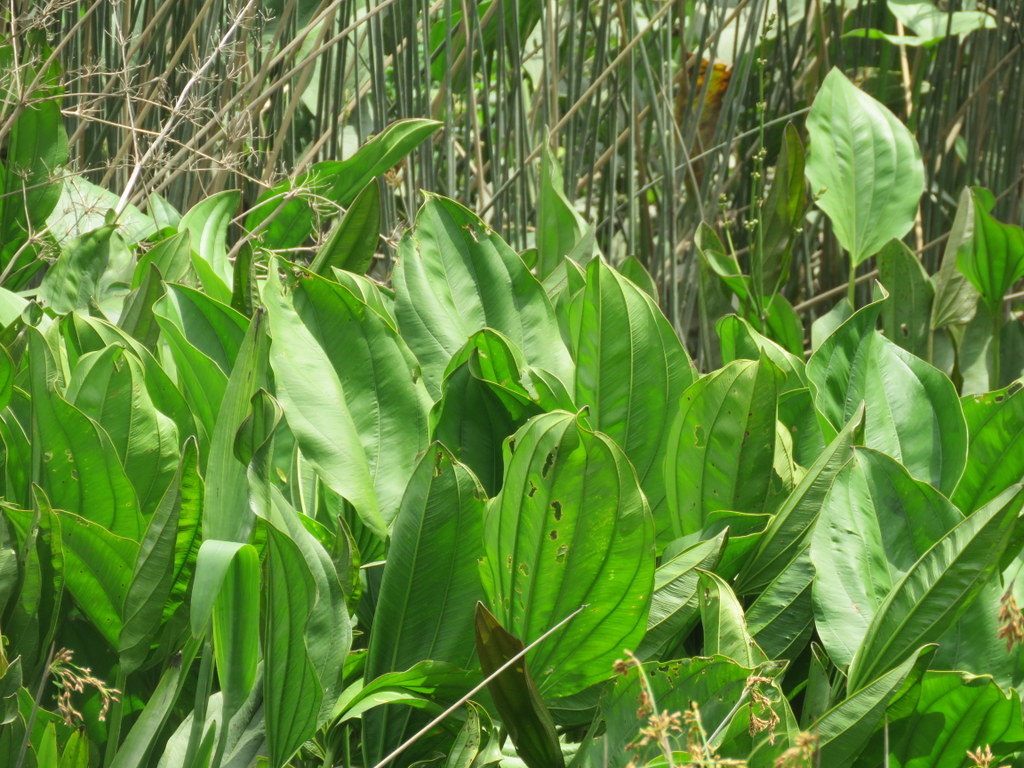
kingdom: Plantae
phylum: Tracheophyta
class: Liliopsida
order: Alismatales
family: Alismataceae
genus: Aquarius
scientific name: Aquarius grandiflorus
